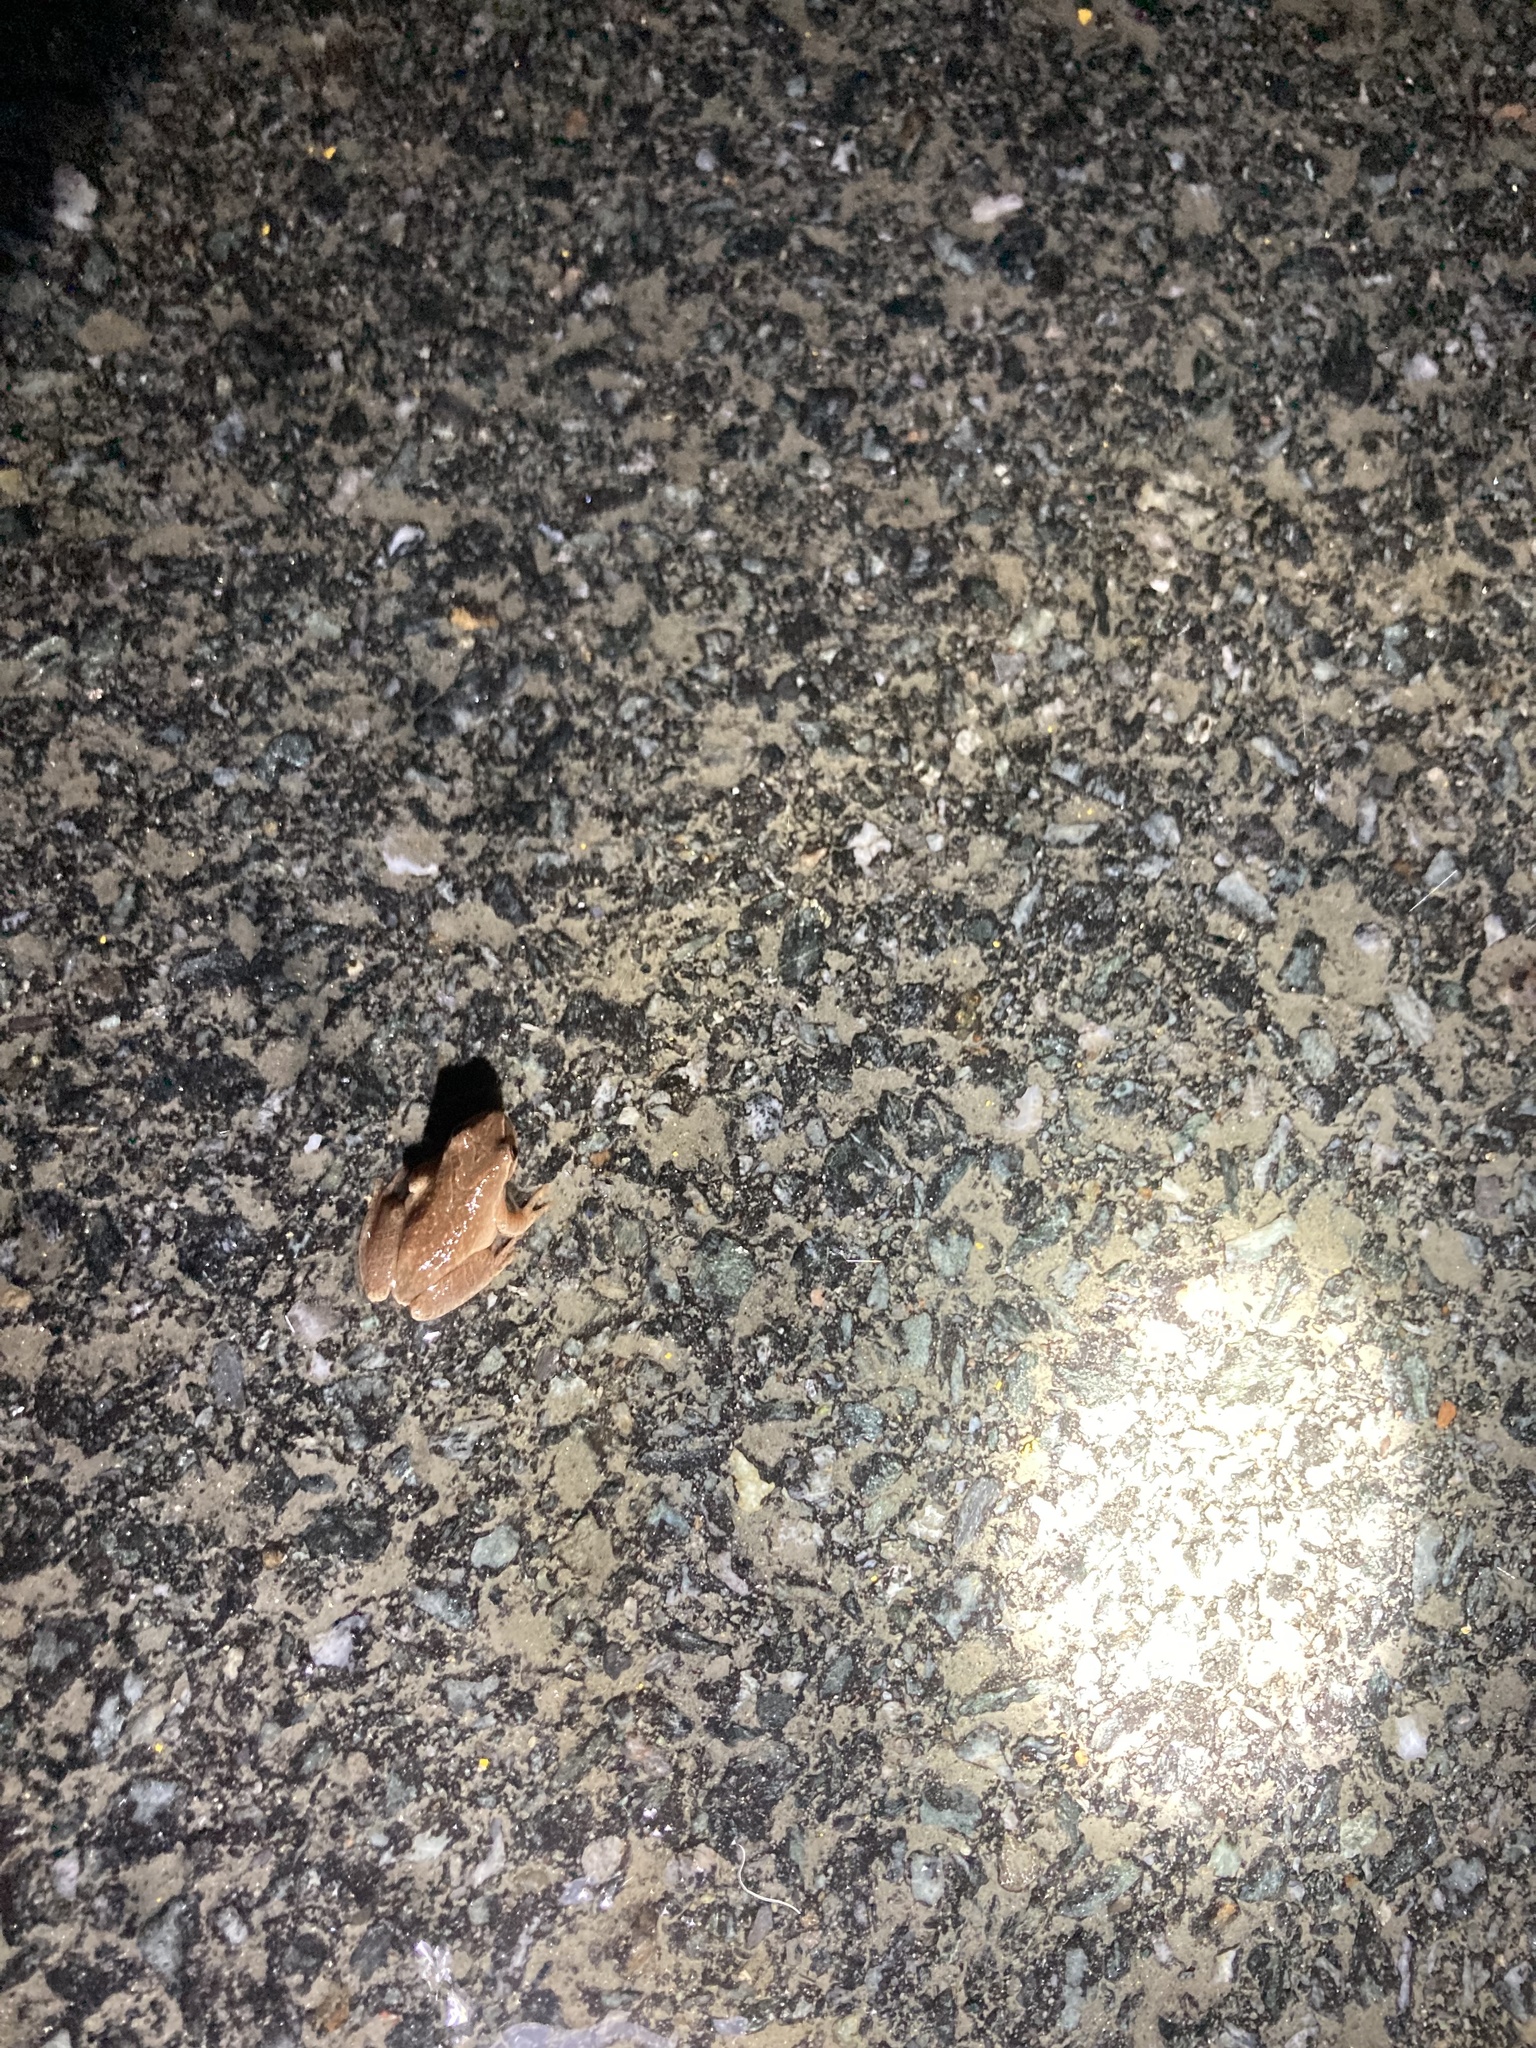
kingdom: Animalia
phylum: Chordata
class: Amphibia
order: Anura
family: Hylidae
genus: Pseudacris
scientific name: Pseudacris crucifer
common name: Spring peeper
